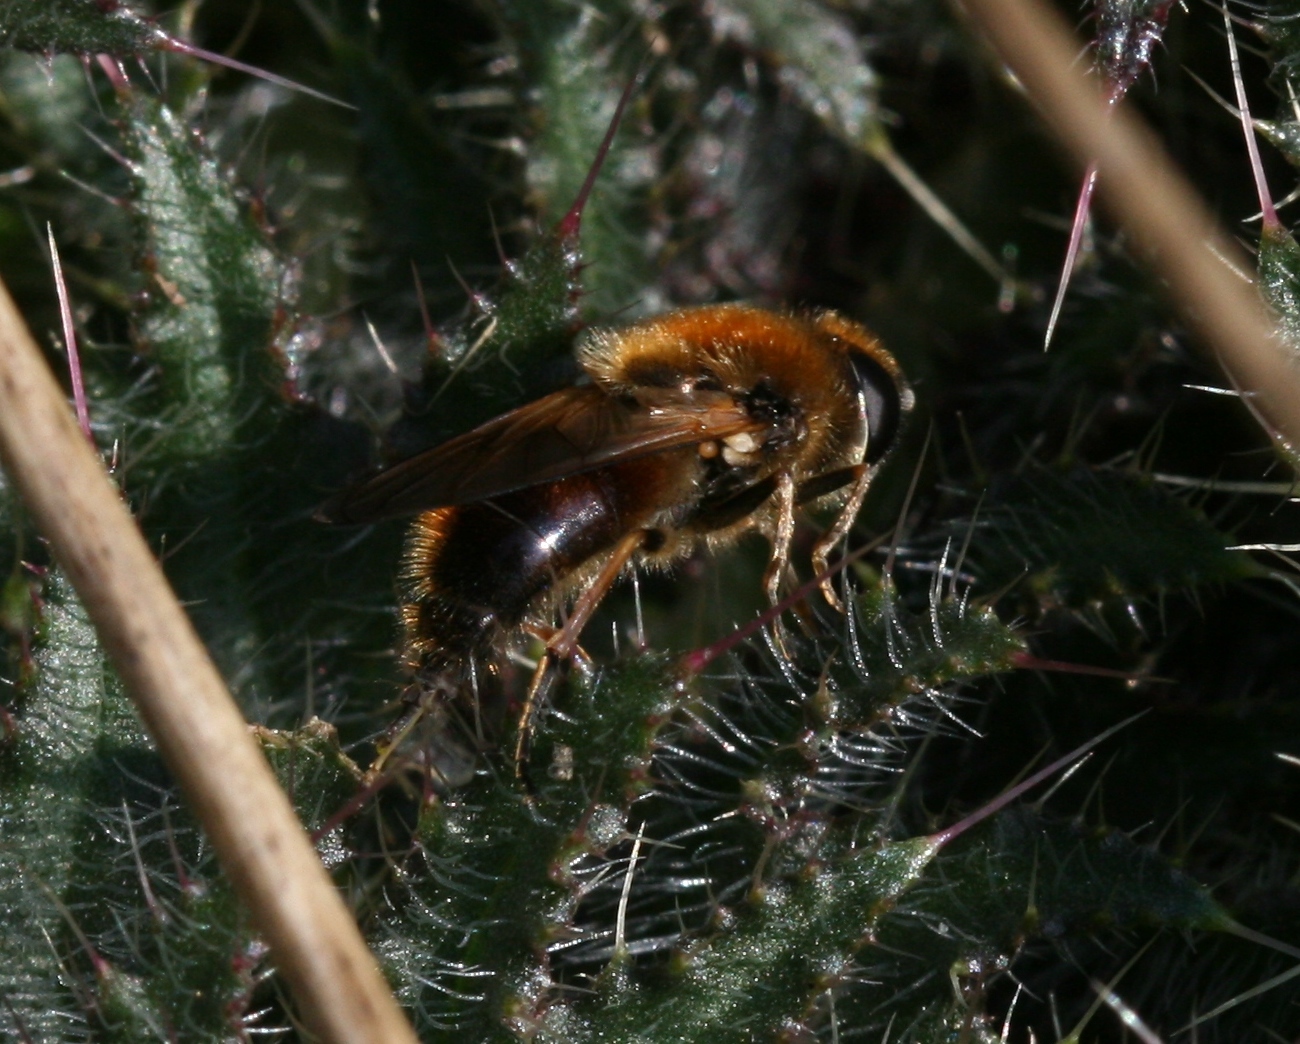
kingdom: Animalia
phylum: Arthropoda
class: Insecta
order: Diptera
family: Syrphidae
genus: Cheilosia
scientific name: Cheilosia corydon
